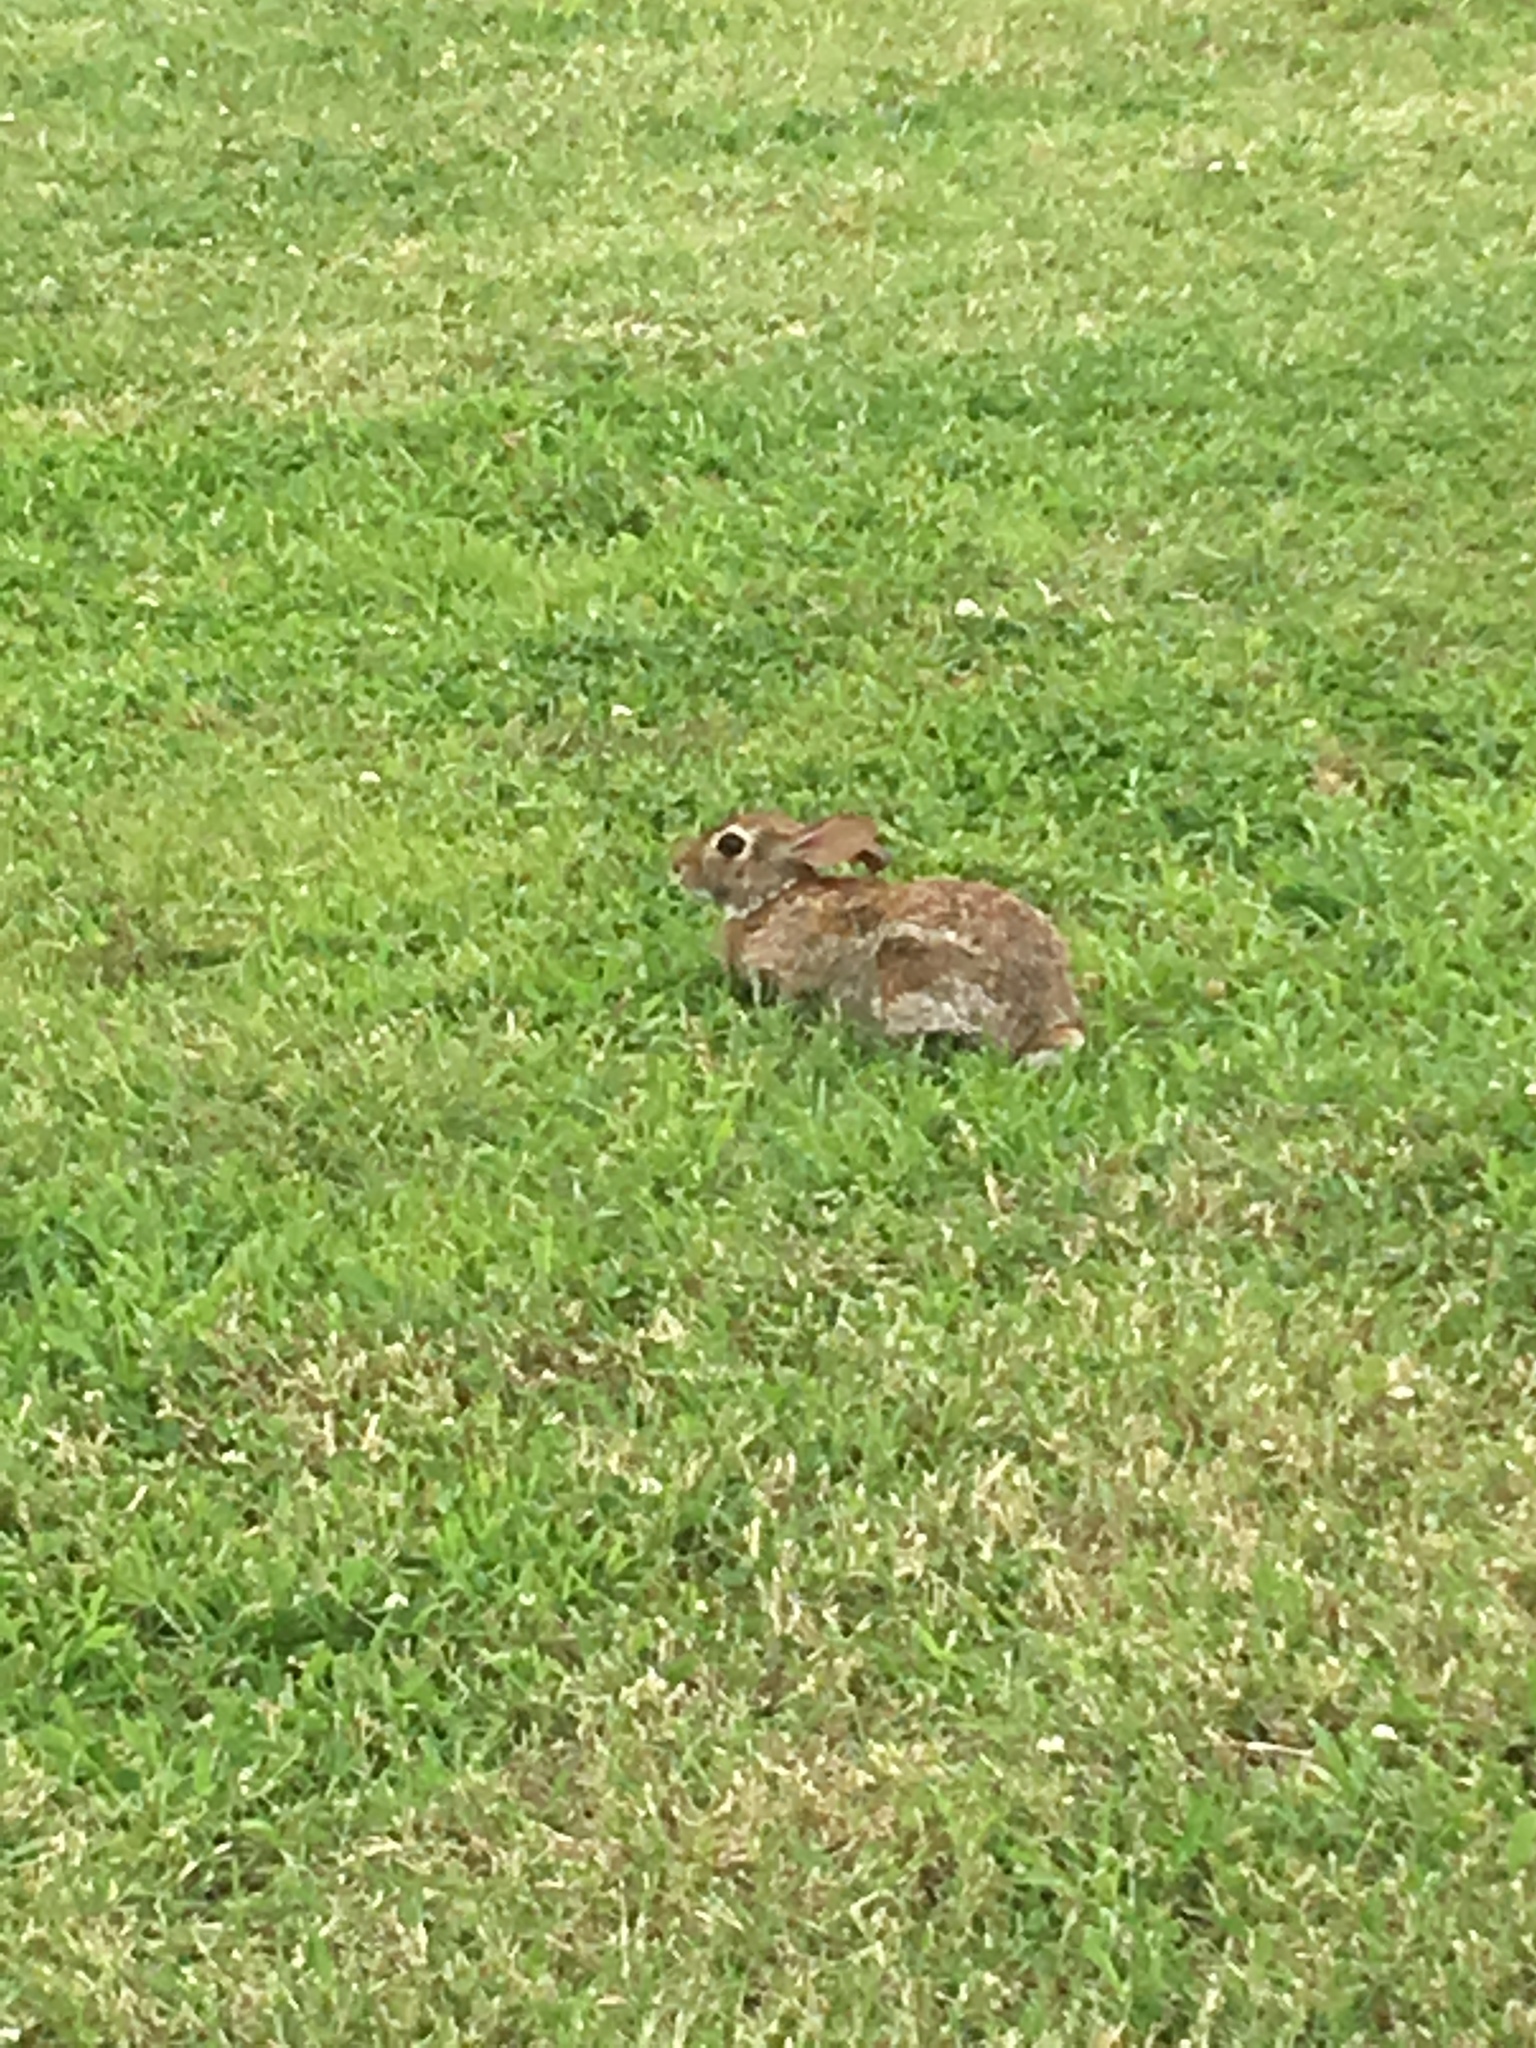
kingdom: Animalia
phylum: Chordata
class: Mammalia
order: Lagomorpha
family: Leporidae
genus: Sylvilagus
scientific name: Sylvilagus floridanus
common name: Eastern cottontail
